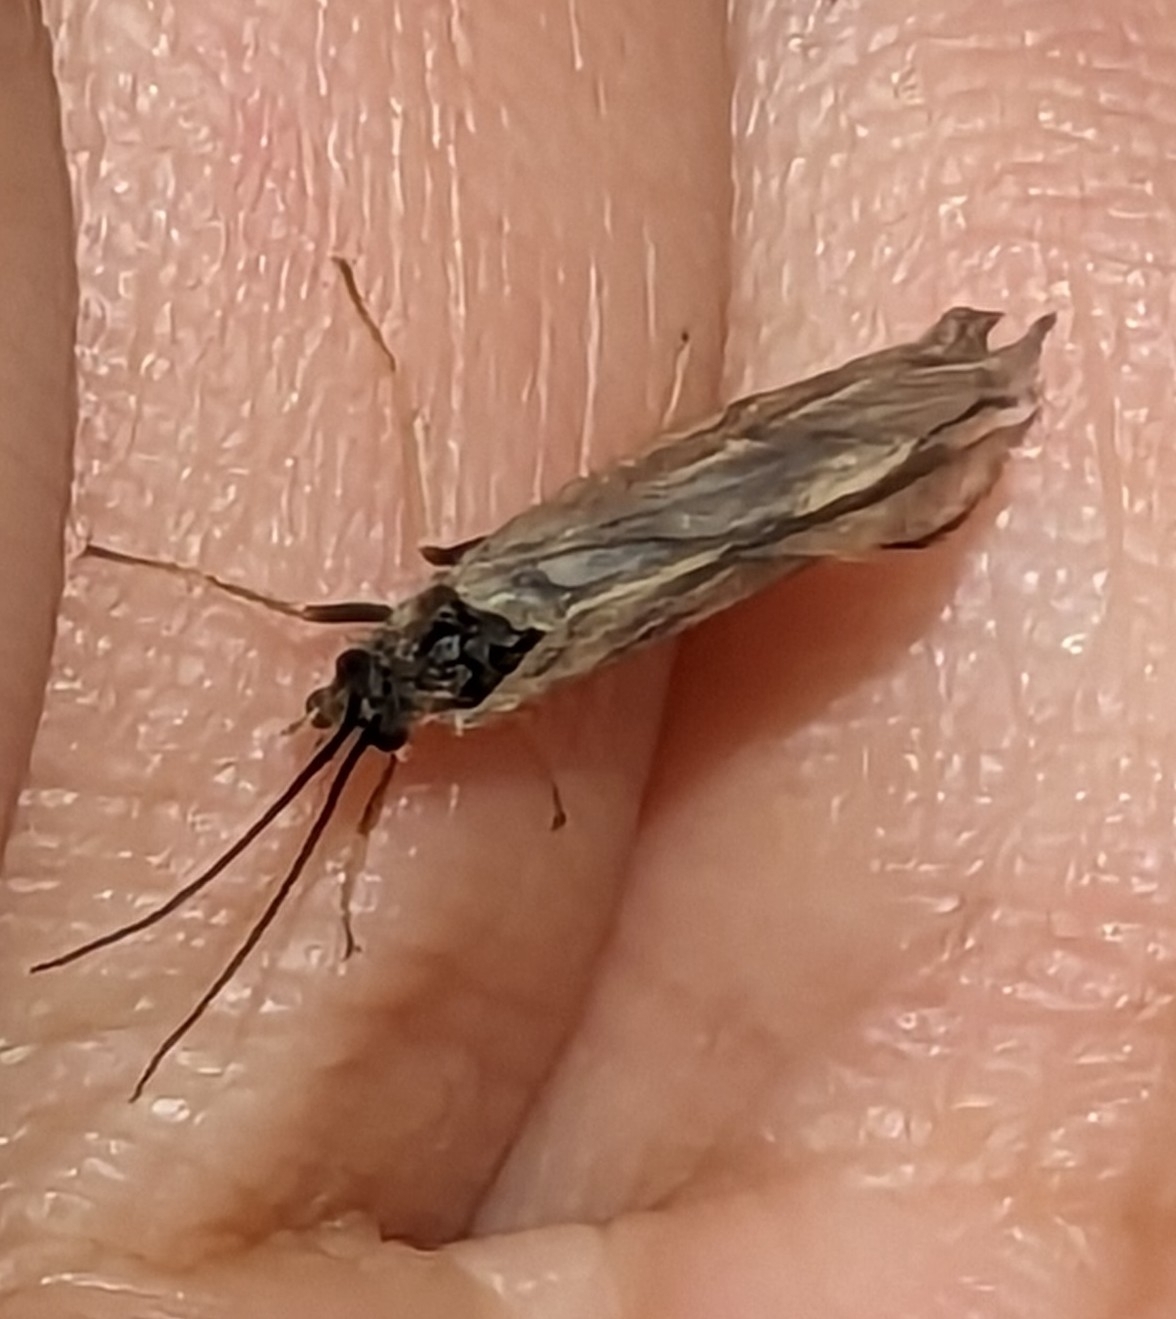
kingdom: Animalia
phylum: Arthropoda
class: Insecta
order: Trichoptera
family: Brachycentridae
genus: Brachycentrus
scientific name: Brachycentrus subnubilis
